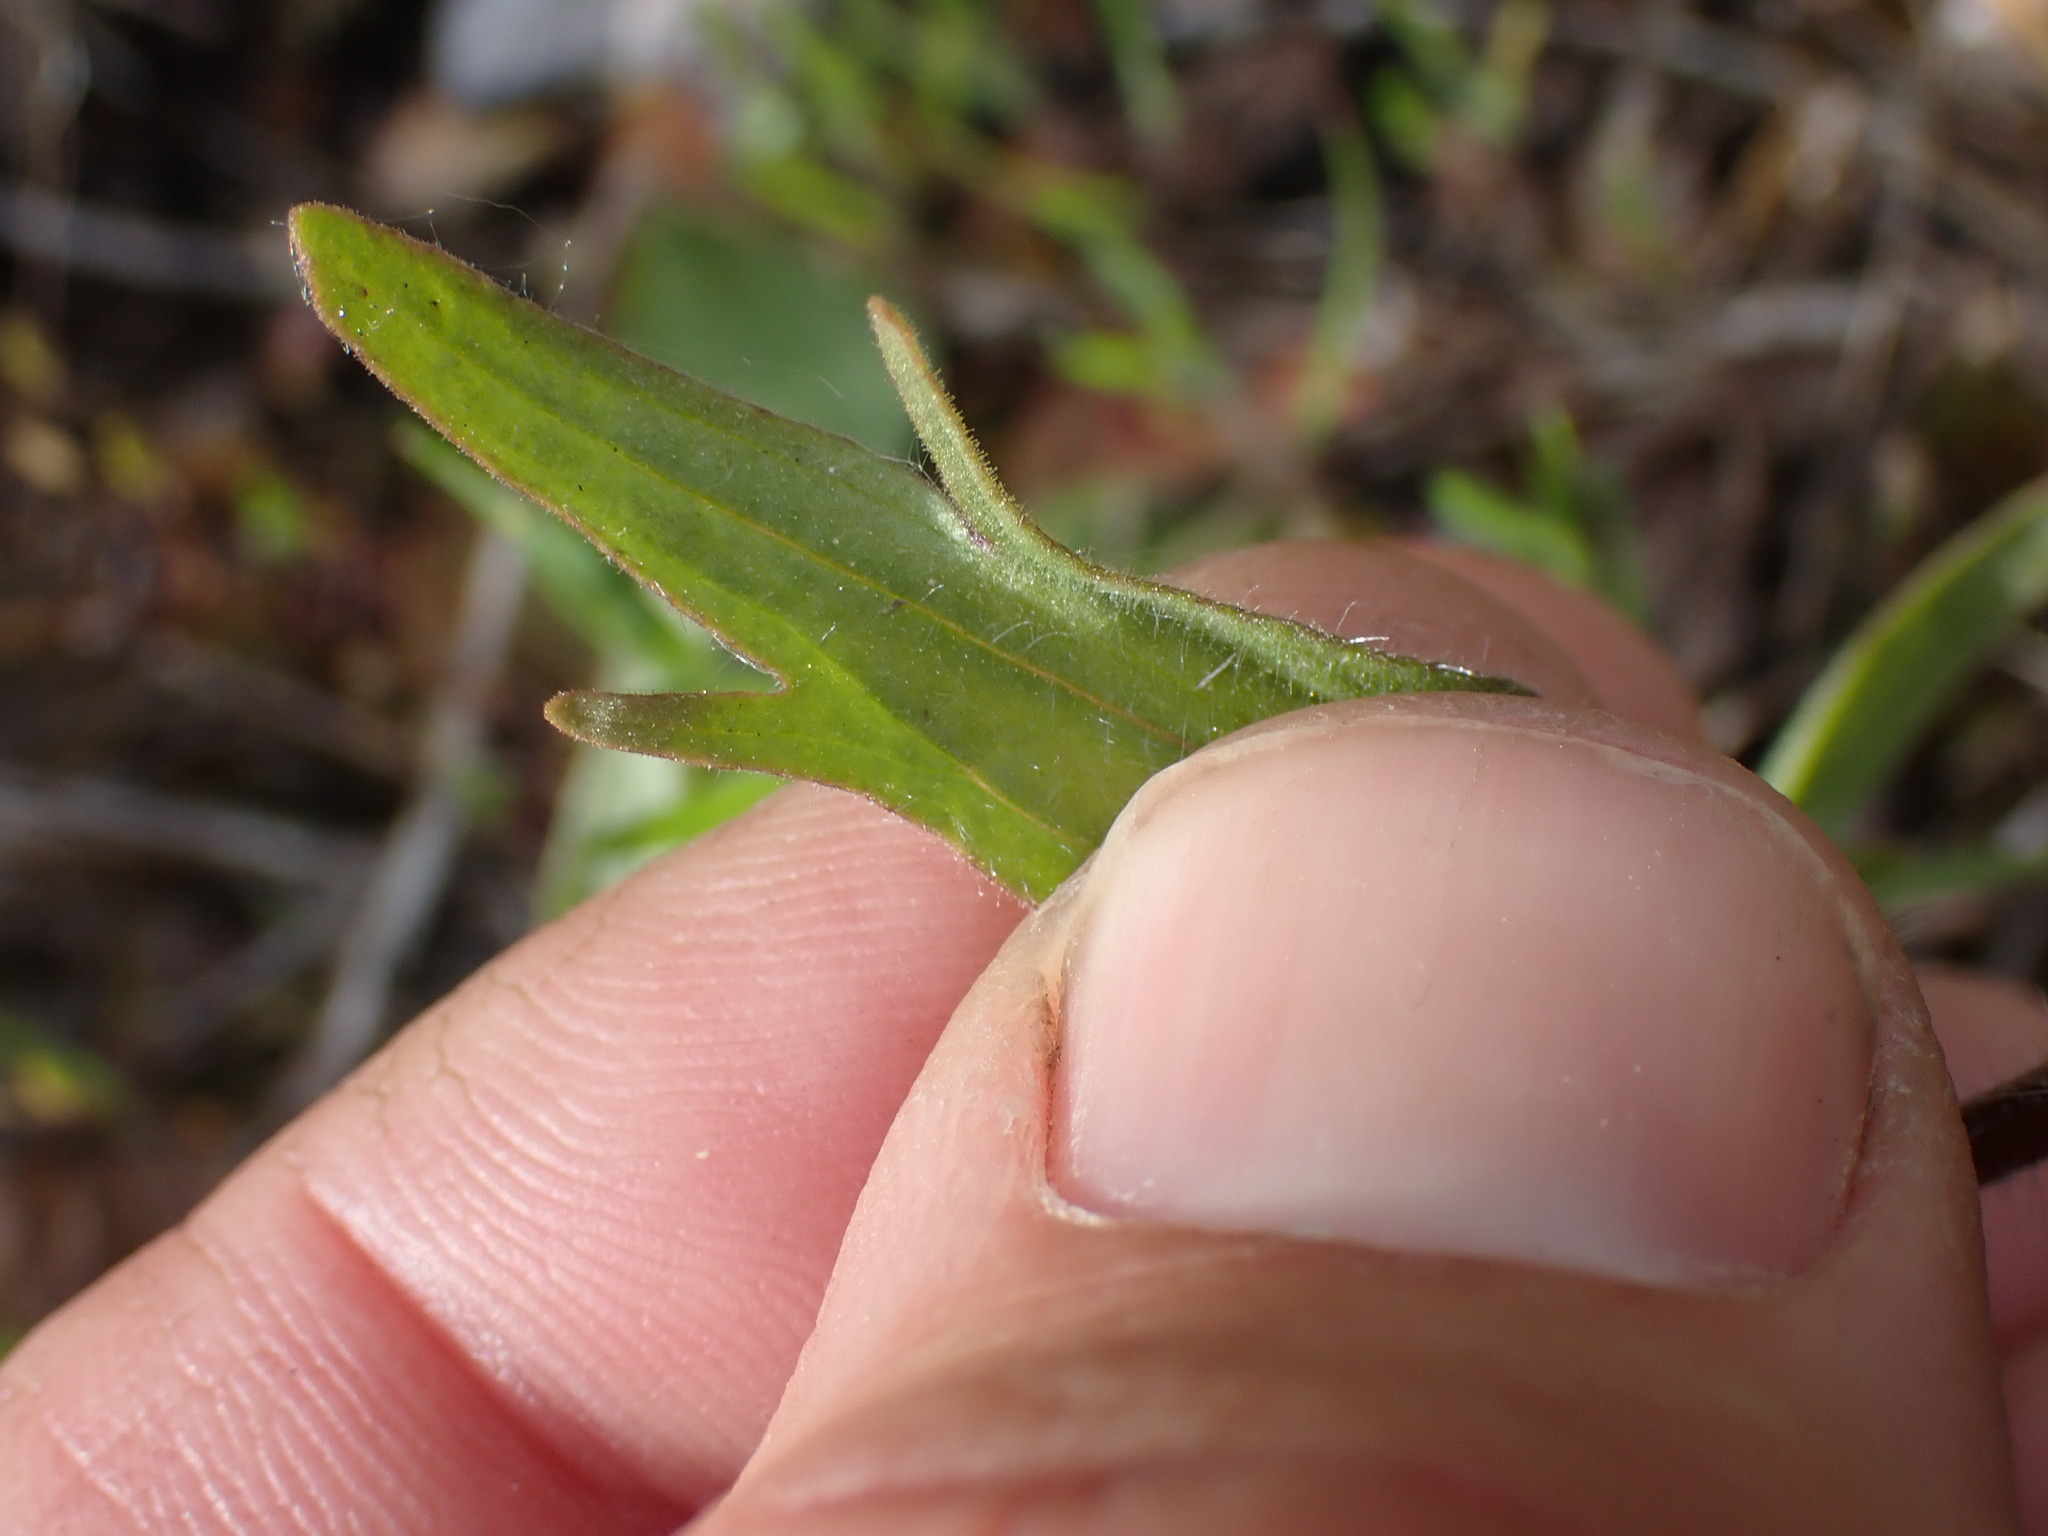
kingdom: Plantae
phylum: Tracheophyta
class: Magnoliopsida
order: Lamiales
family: Orobanchaceae
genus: Castilleja
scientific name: Castilleja hispida
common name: Bristly paintbrush
